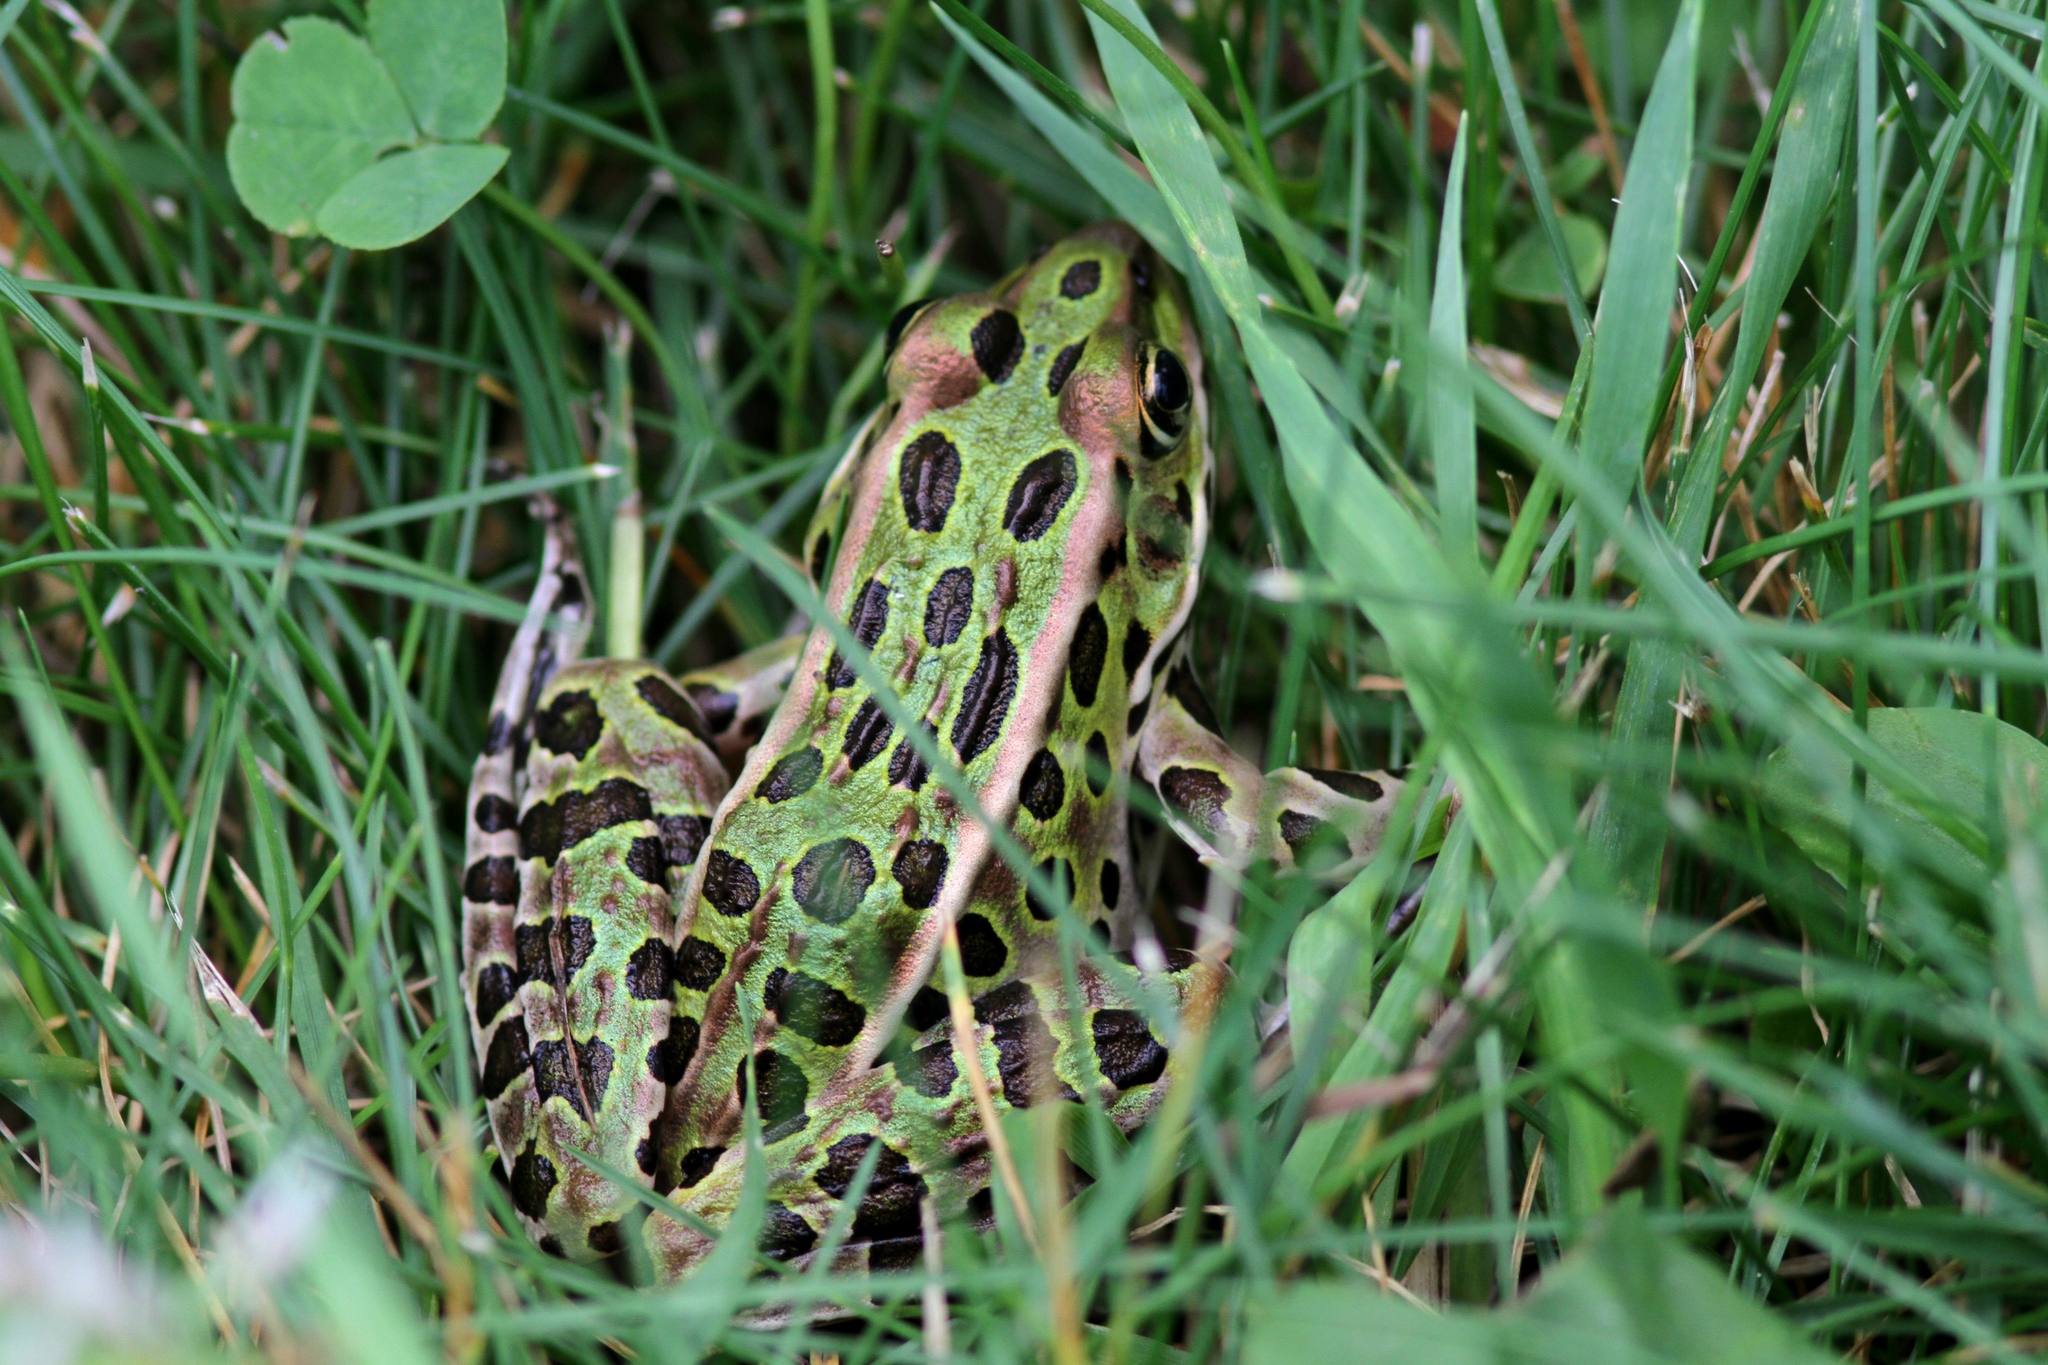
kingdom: Animalia
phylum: Chordata
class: Amphibia
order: Anura
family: Ranidae
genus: Lithobates
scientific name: Lithobates pipiens
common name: Northern leopard frog
